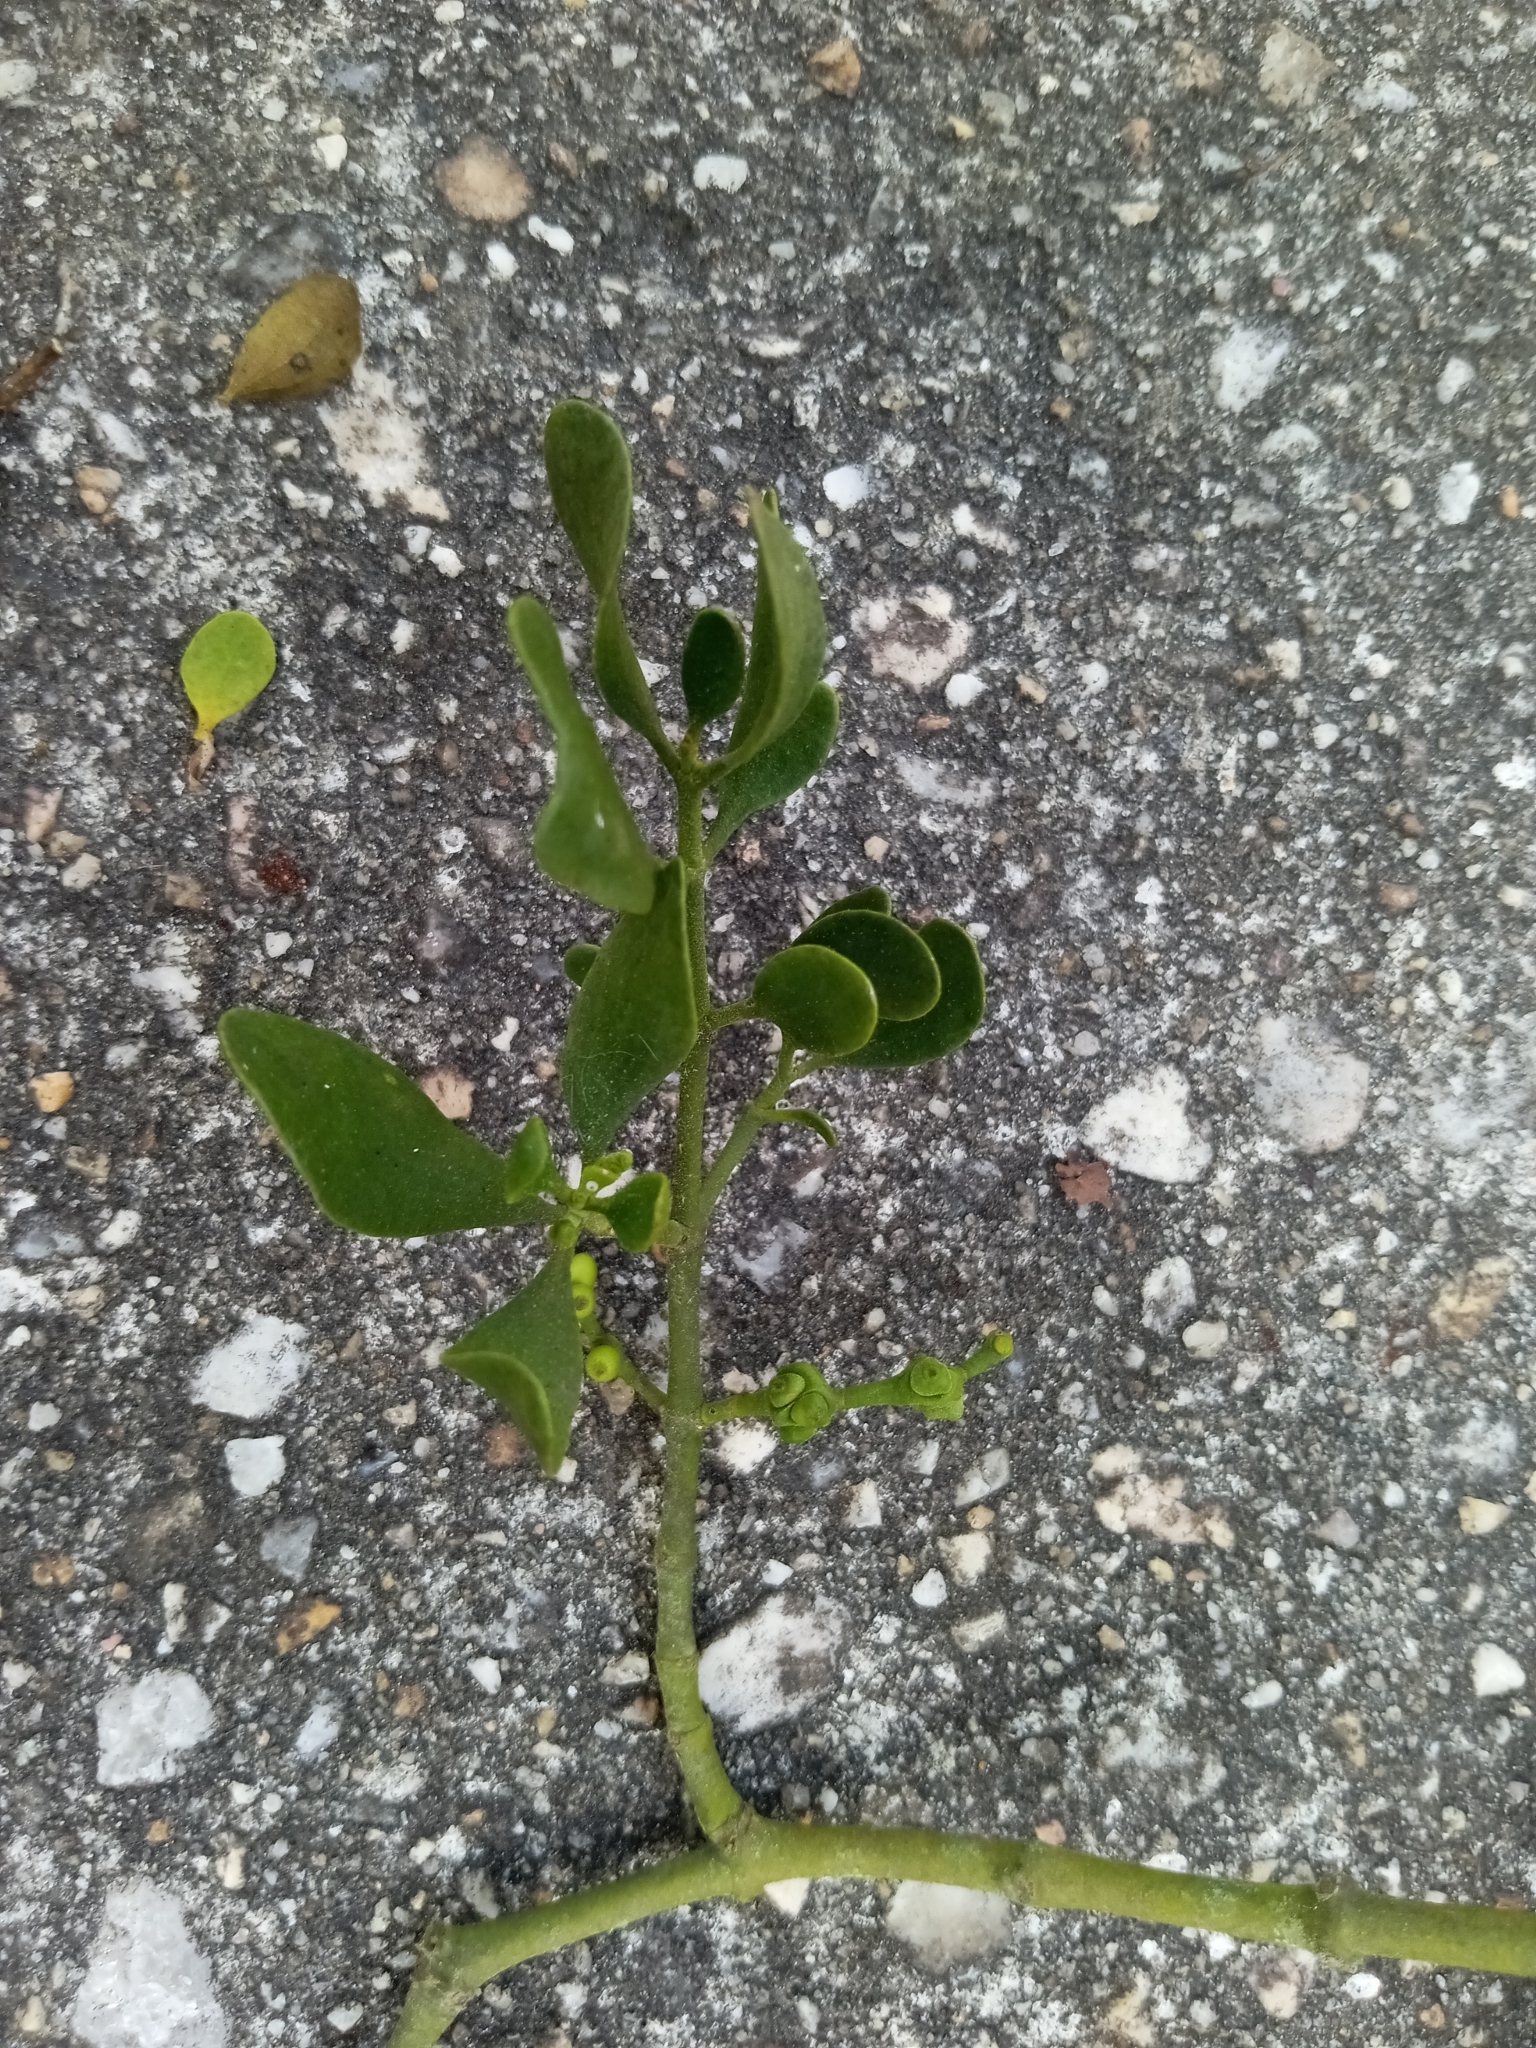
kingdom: Plantae
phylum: Tracheophyta
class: Magnoliopsida
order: Santalales
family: Viscaceae
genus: Phoradendron
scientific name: Phoradendron leucarpum
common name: Pacific mistletoe
